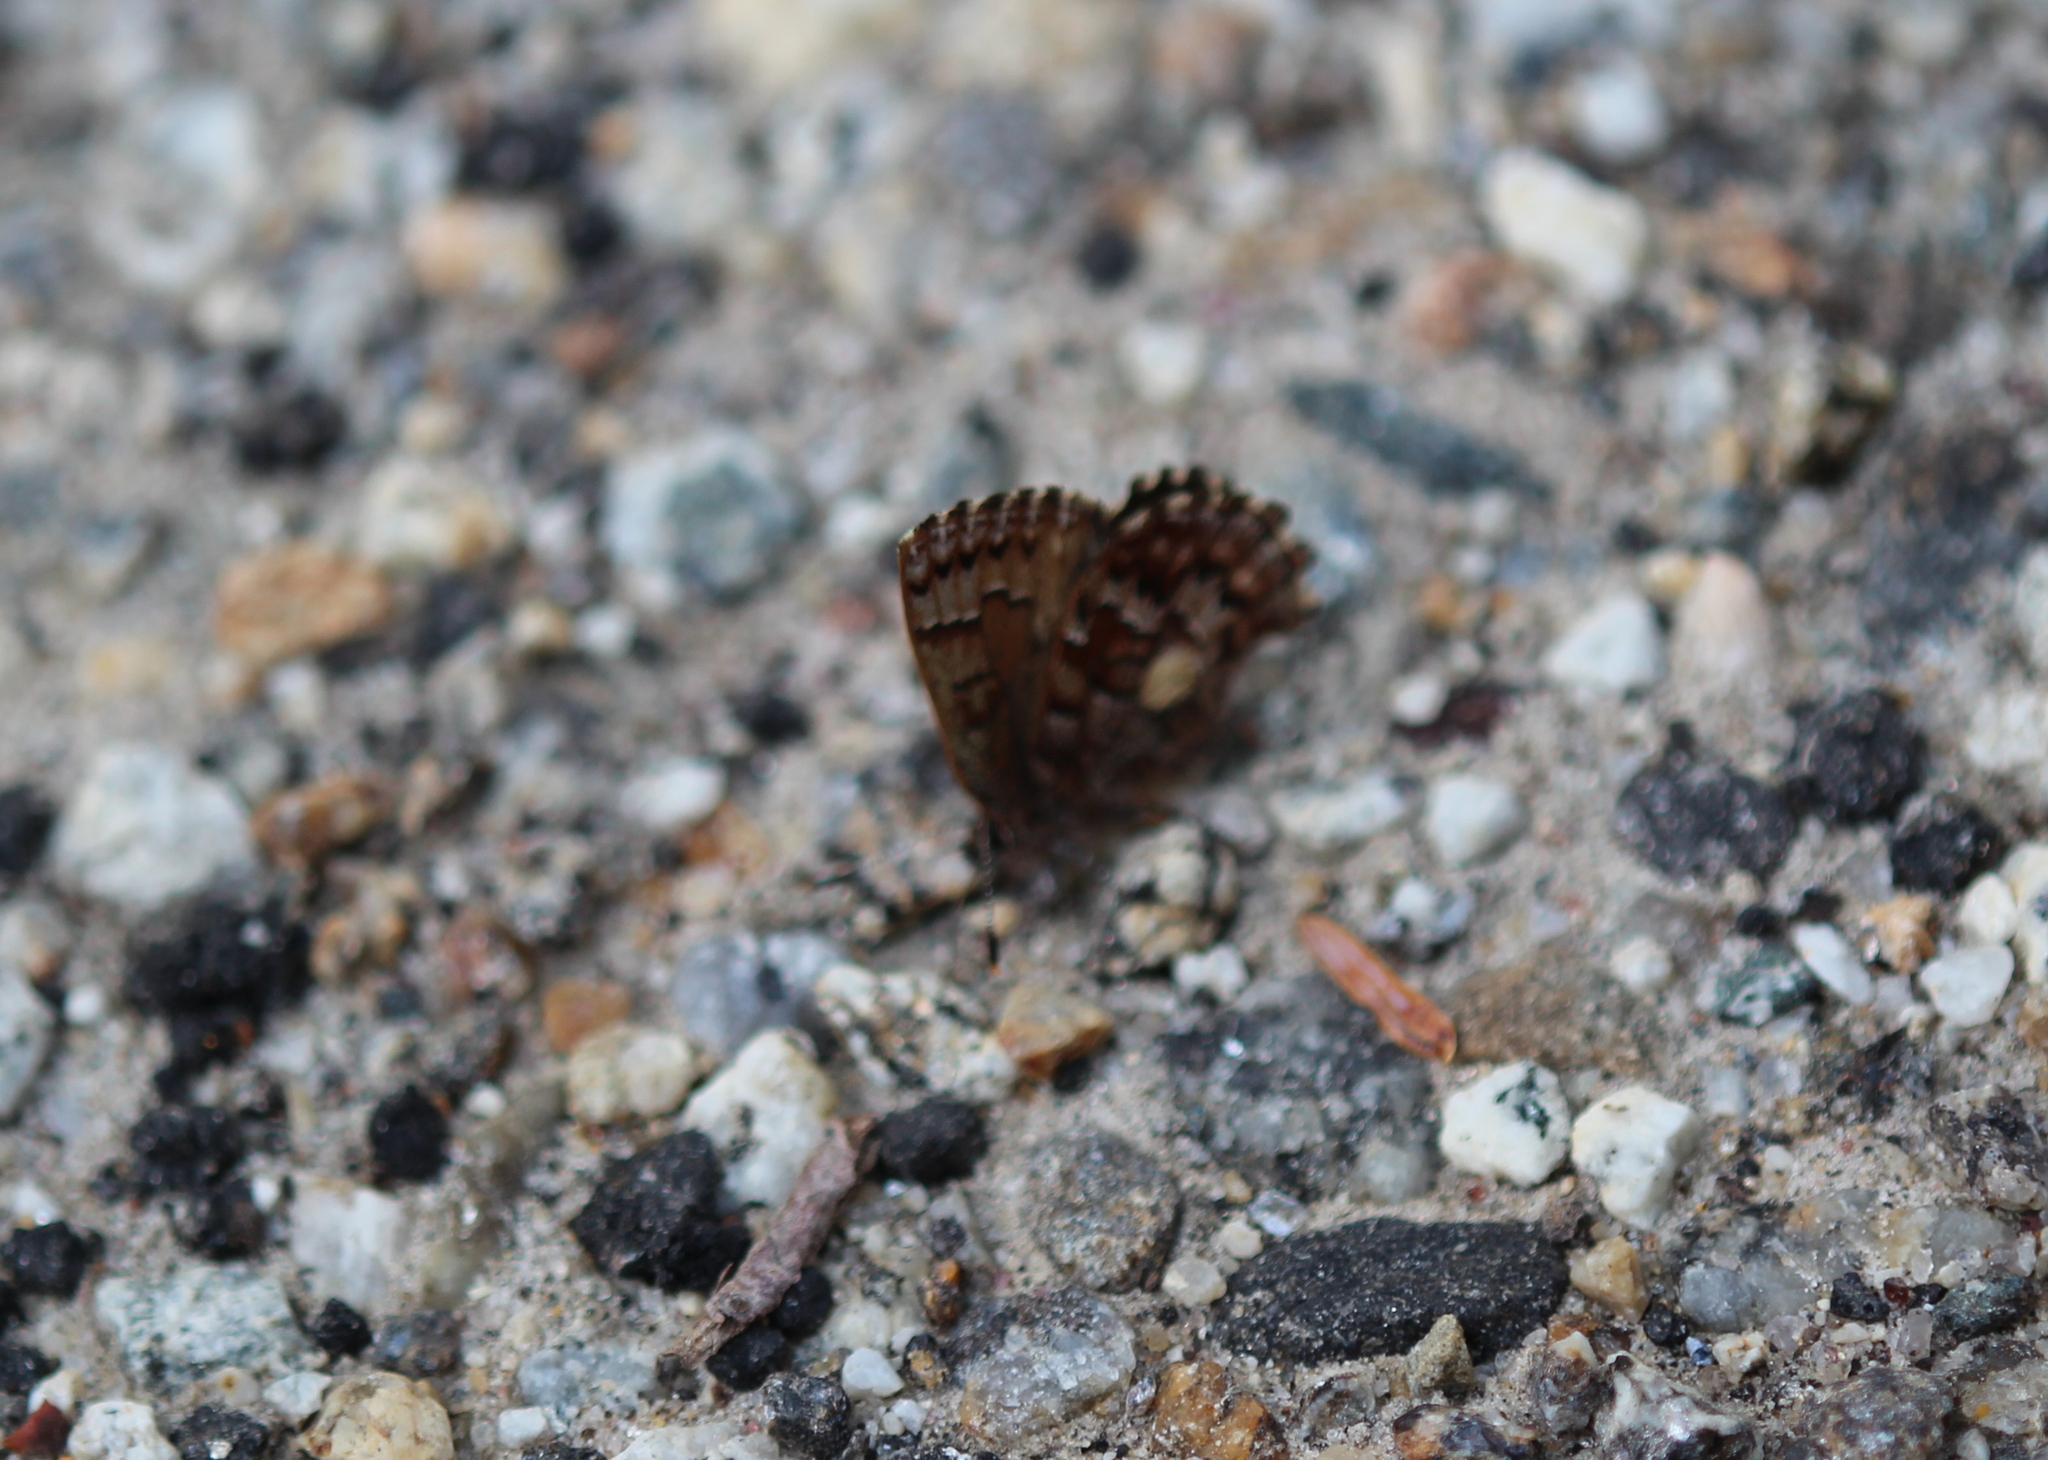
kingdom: Animalia
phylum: Arthropoda
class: Insecta
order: Lepidoptera
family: Lycaenidae
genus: Incisalia
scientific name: Incisalia niphon
